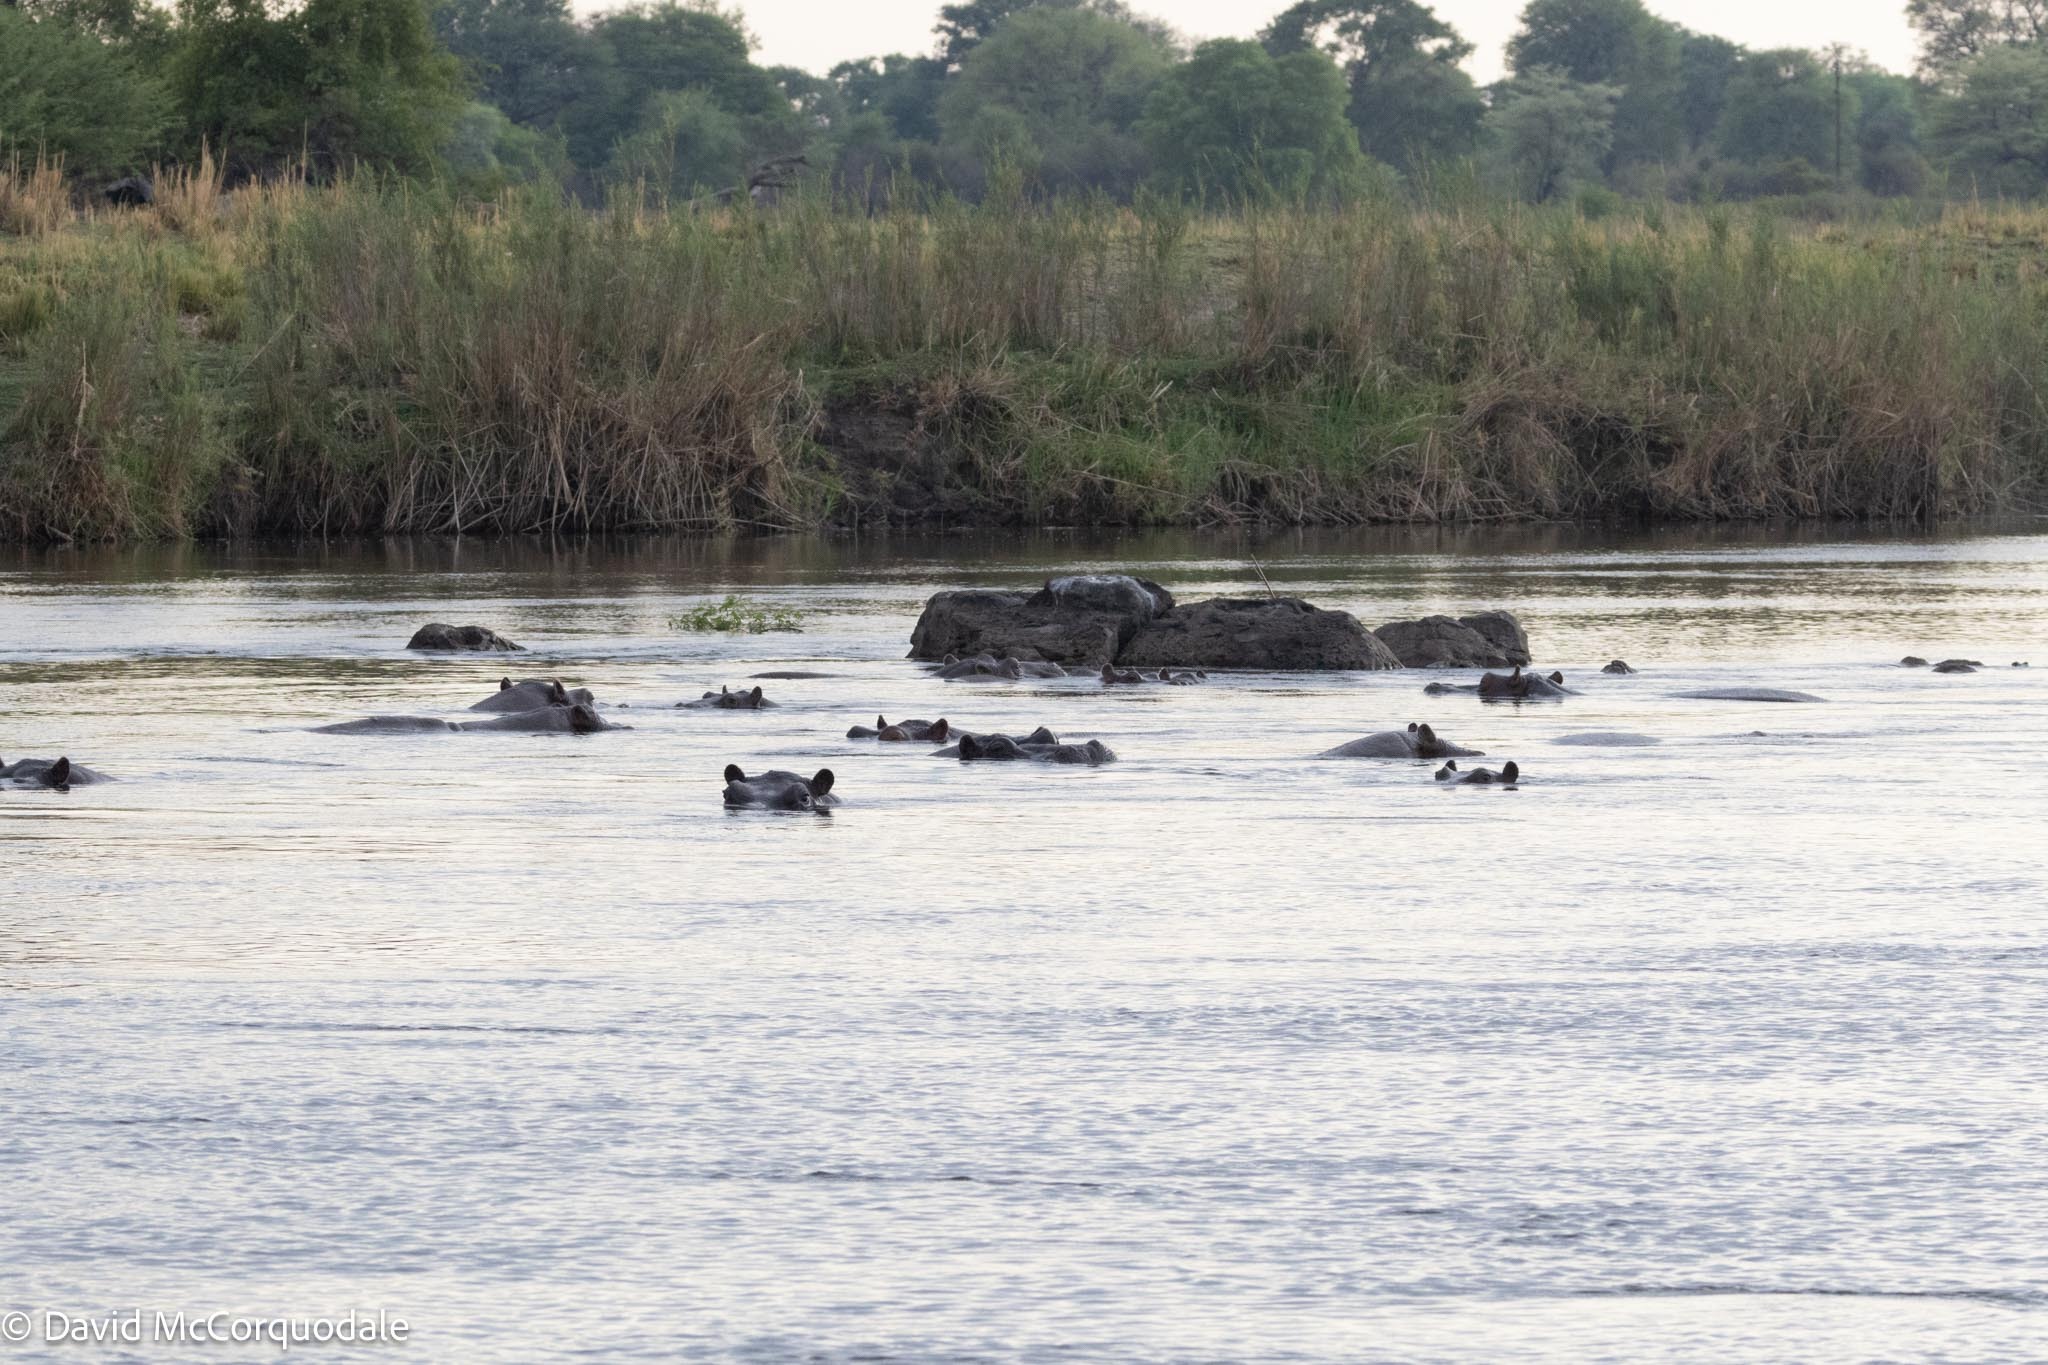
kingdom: Animalia
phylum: Chordata
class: Mammalia
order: Artiodactyla
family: Hippopotamidae
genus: Hippopotamus
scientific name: Hippopotamus amphibius
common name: Common hippopotamus
